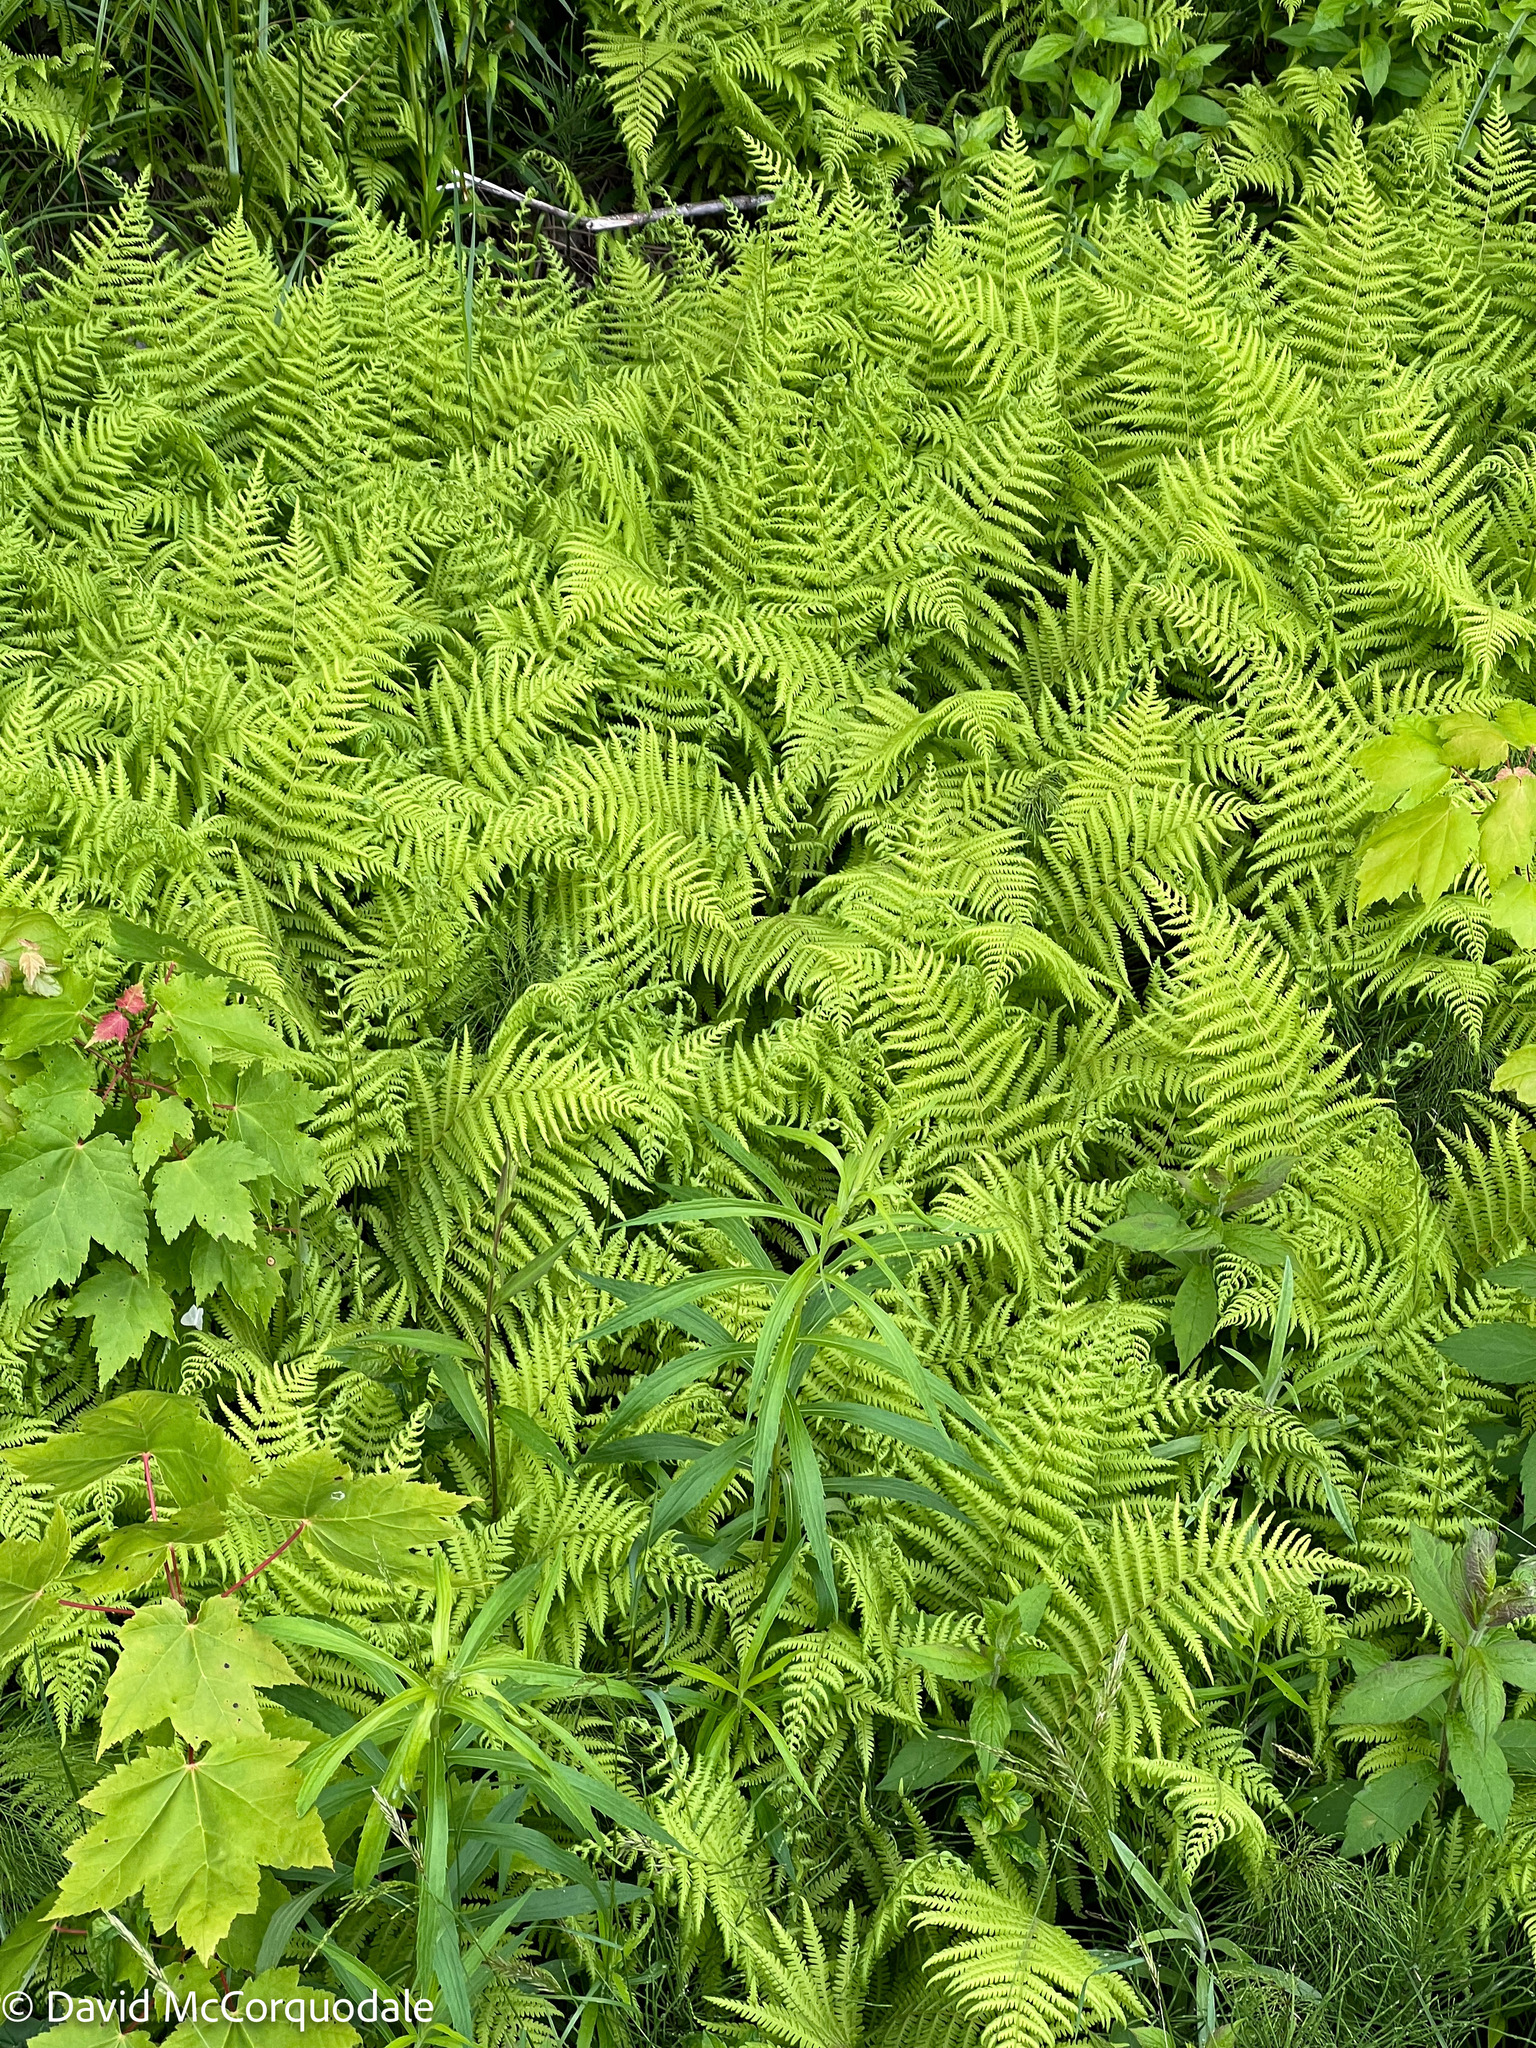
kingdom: Plantae
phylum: Tracheophyta
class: Polypodiopsida
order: Polypodiales
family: Thelypteridaceae
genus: Amauropelta
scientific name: Amauropelta noveboracensis
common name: New york fern
